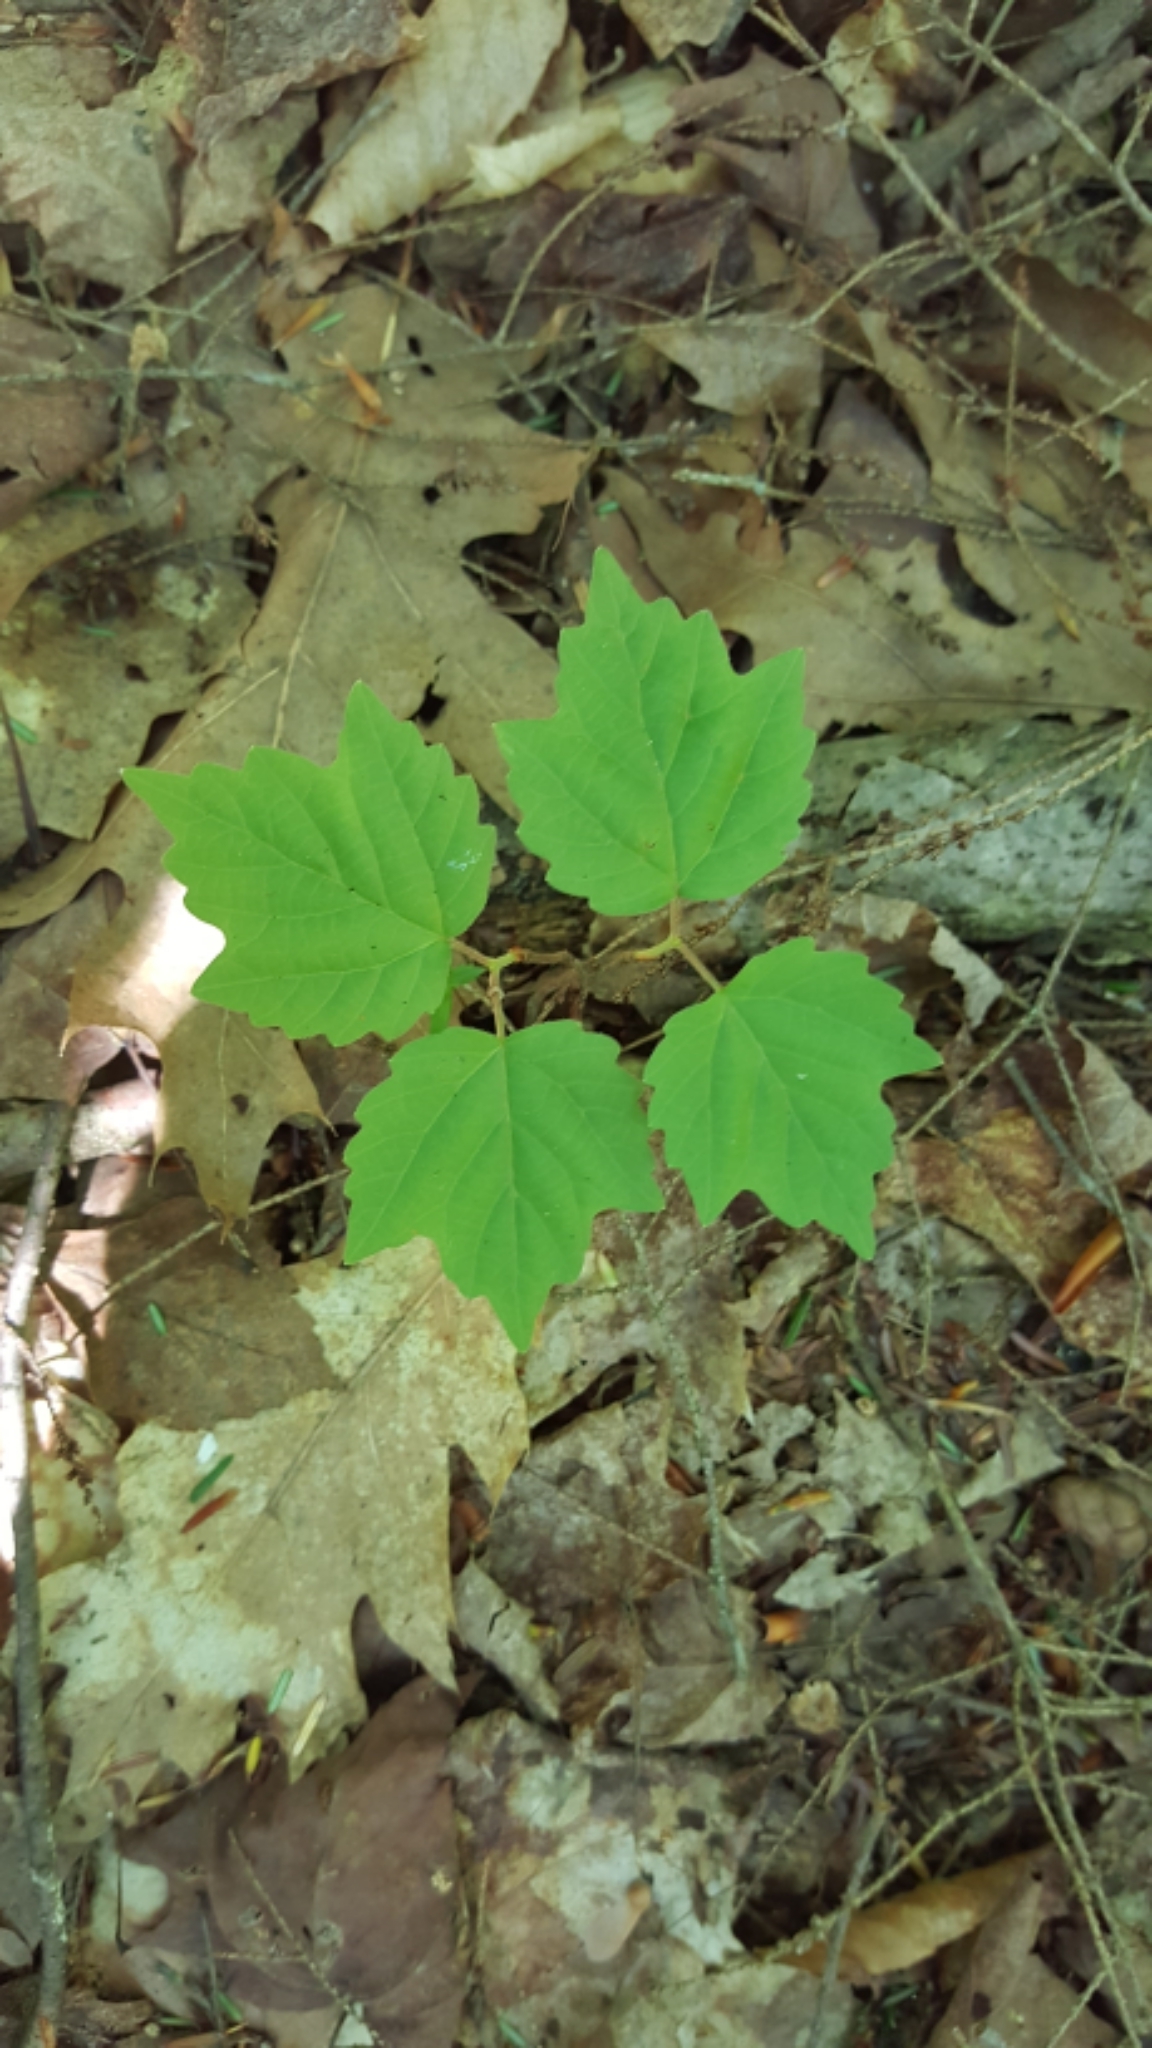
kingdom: Plantae
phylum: Tracheophyta
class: Magnoliopsida
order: Dipsacales
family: Viburnaceae
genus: Viburnum
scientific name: Viburnum acerifolium
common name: Dockmackie
